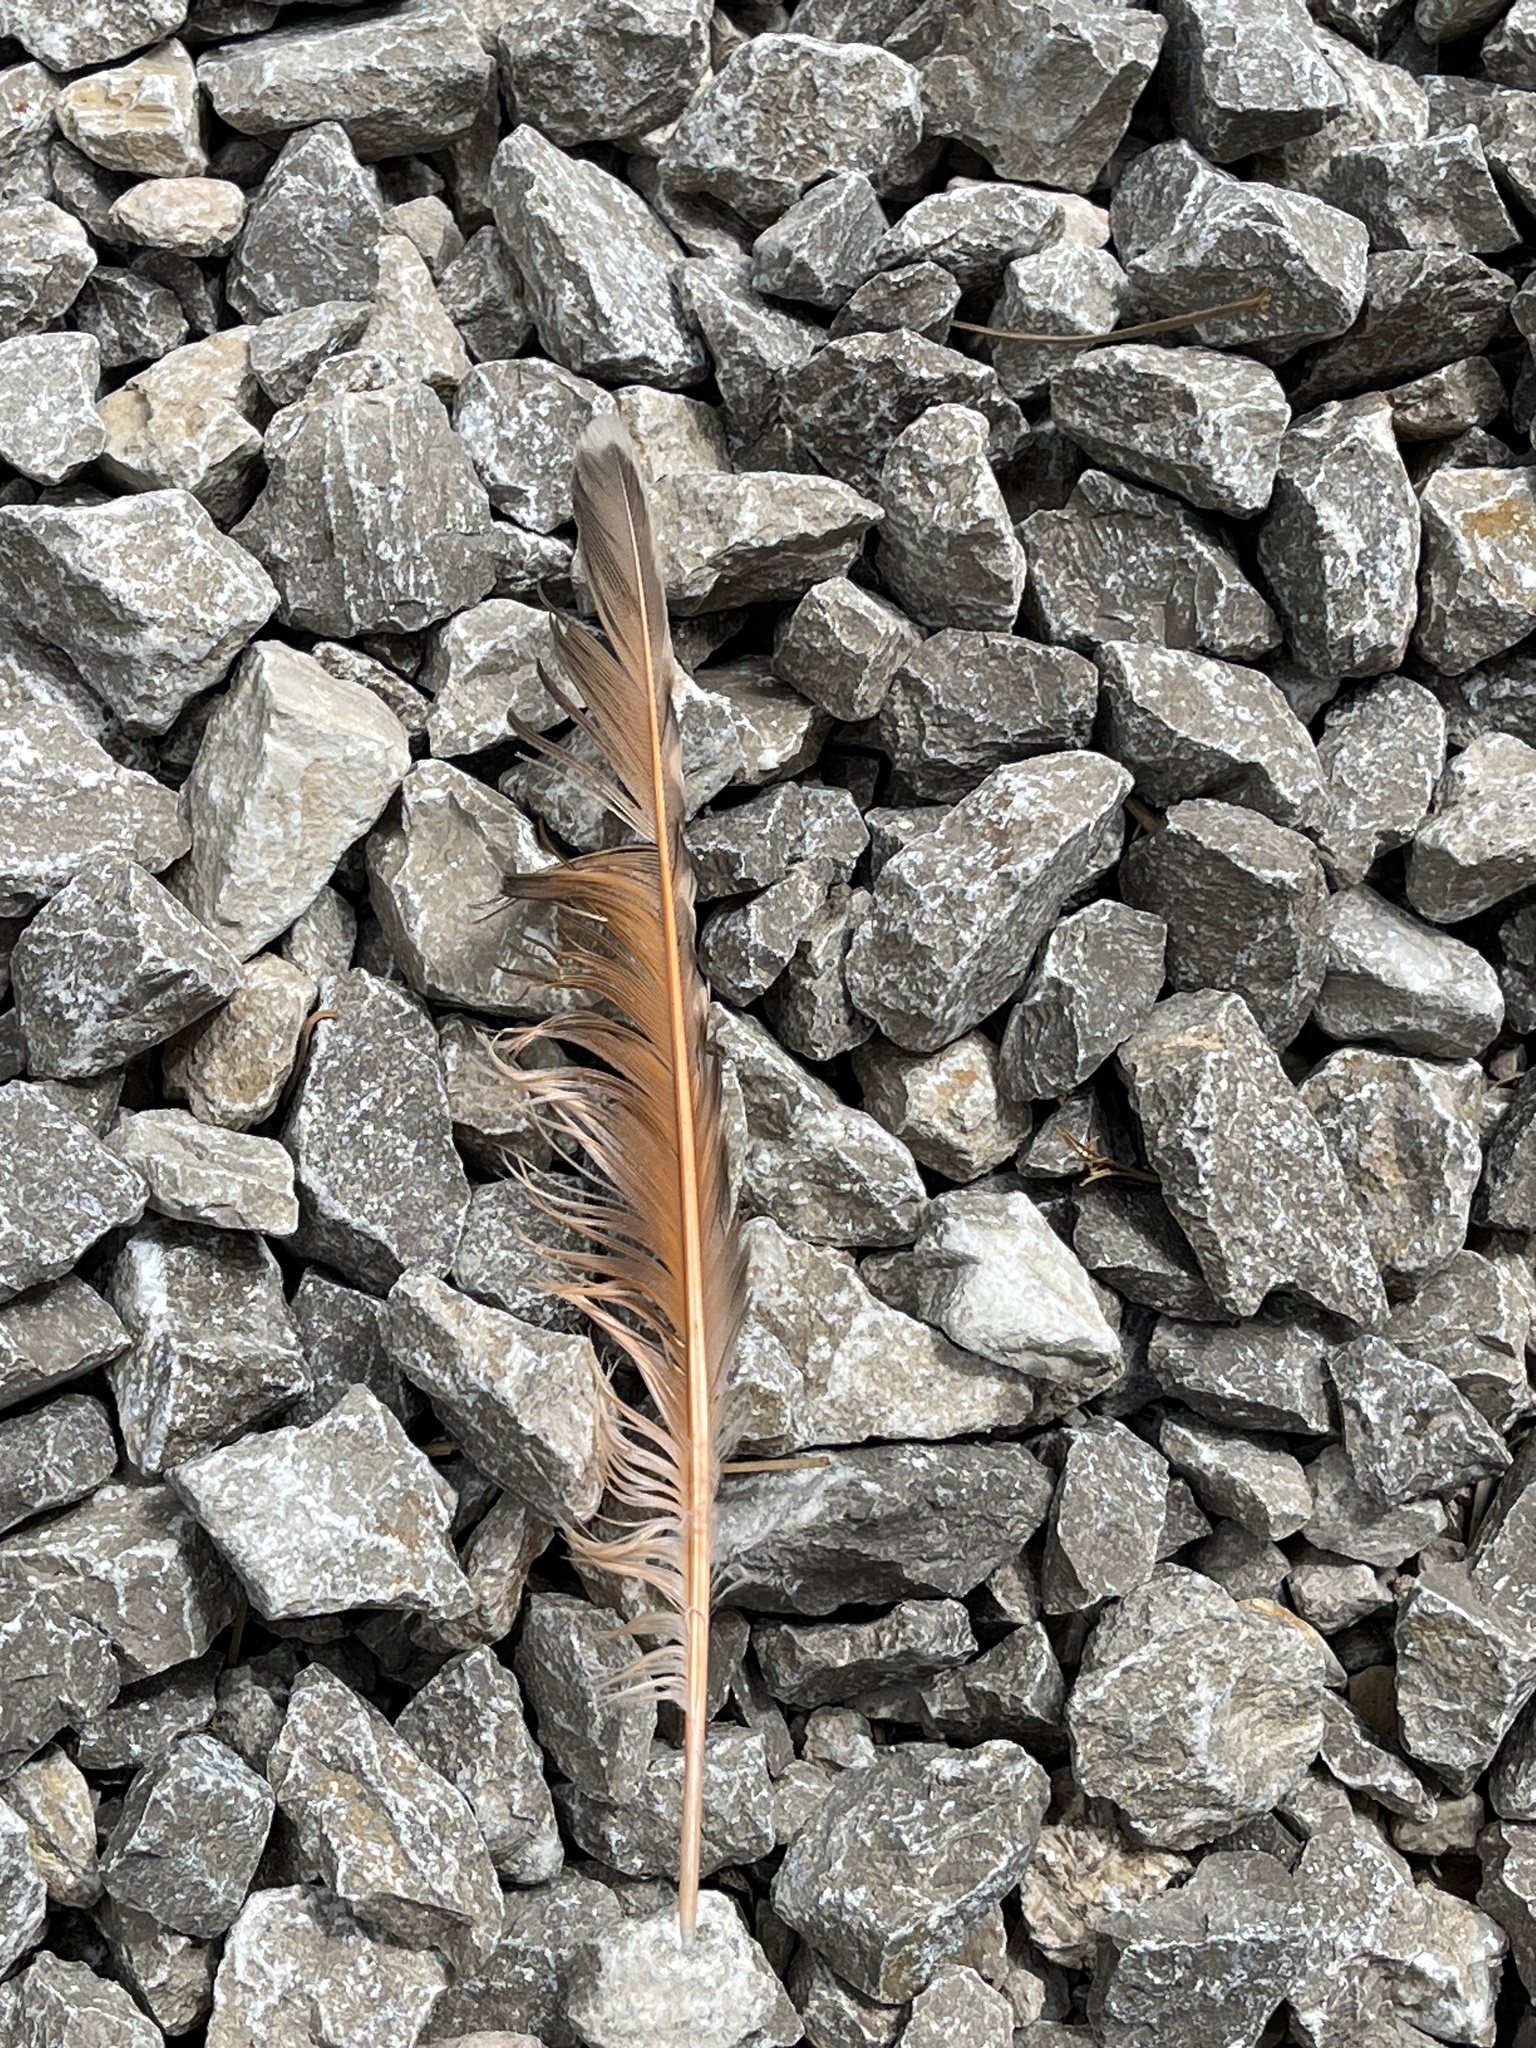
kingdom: Animalia
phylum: Chordata
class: Aves
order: Piciformes
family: Picidae
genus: Colaptes
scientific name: Colaptes auratus
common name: Northern flicker
